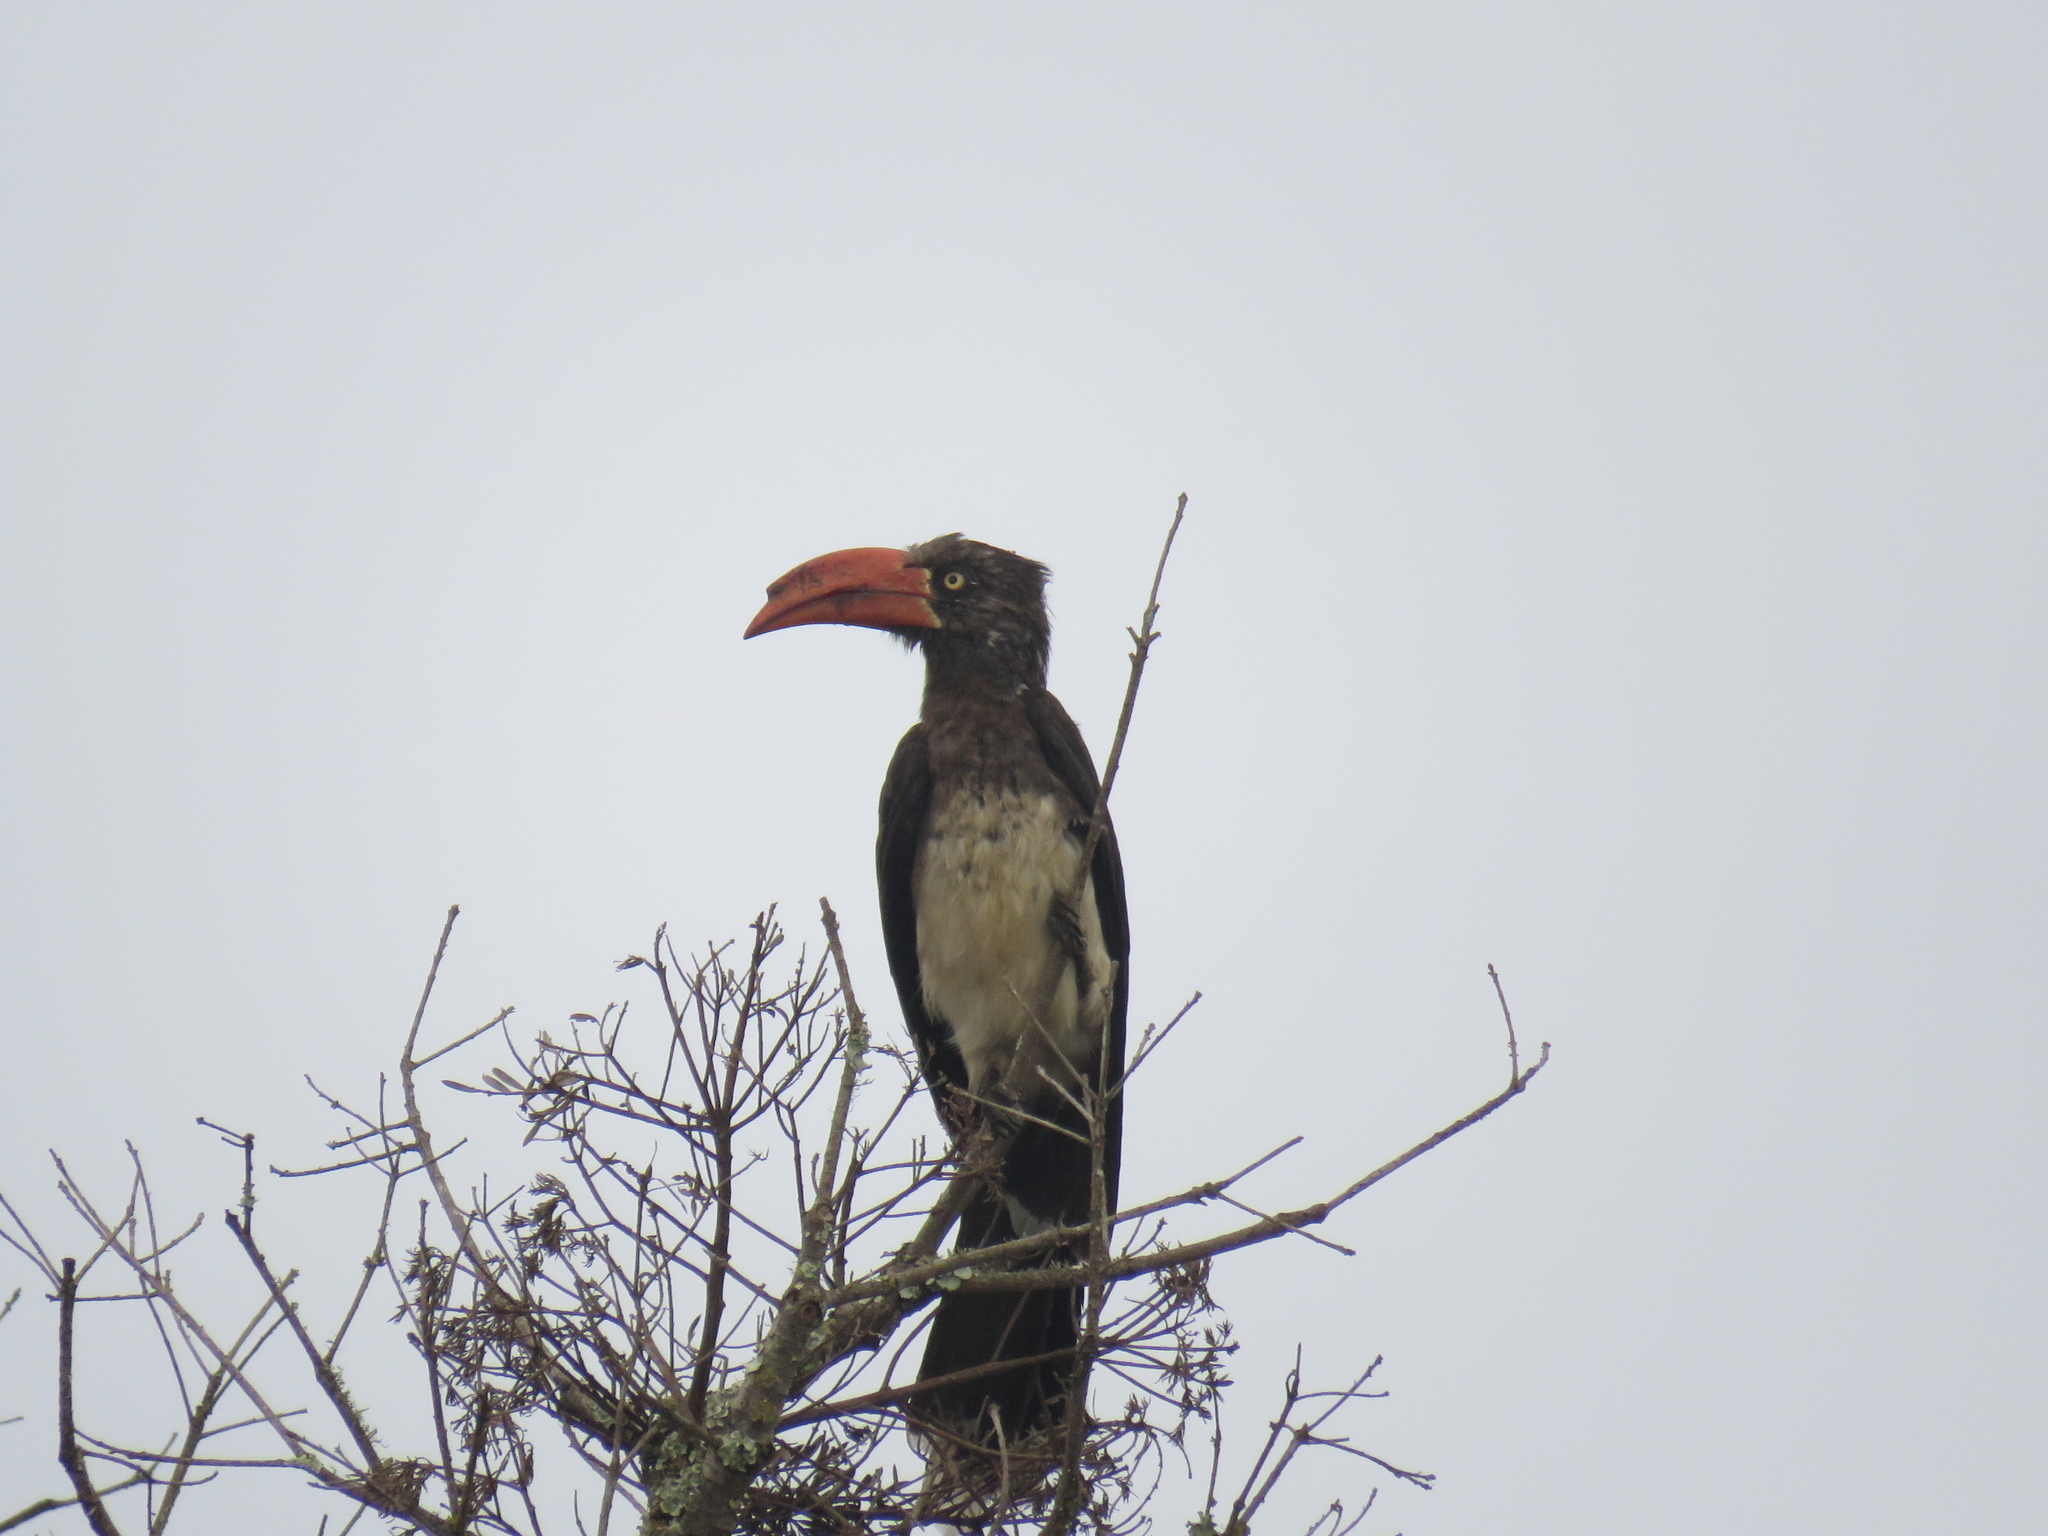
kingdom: Animalia
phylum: Chordata
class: Aves
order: Bucerotiformes
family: Bucerotidae
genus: Lophoceros
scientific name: Lophoceros alboterminatus
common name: Crowned hornbill
